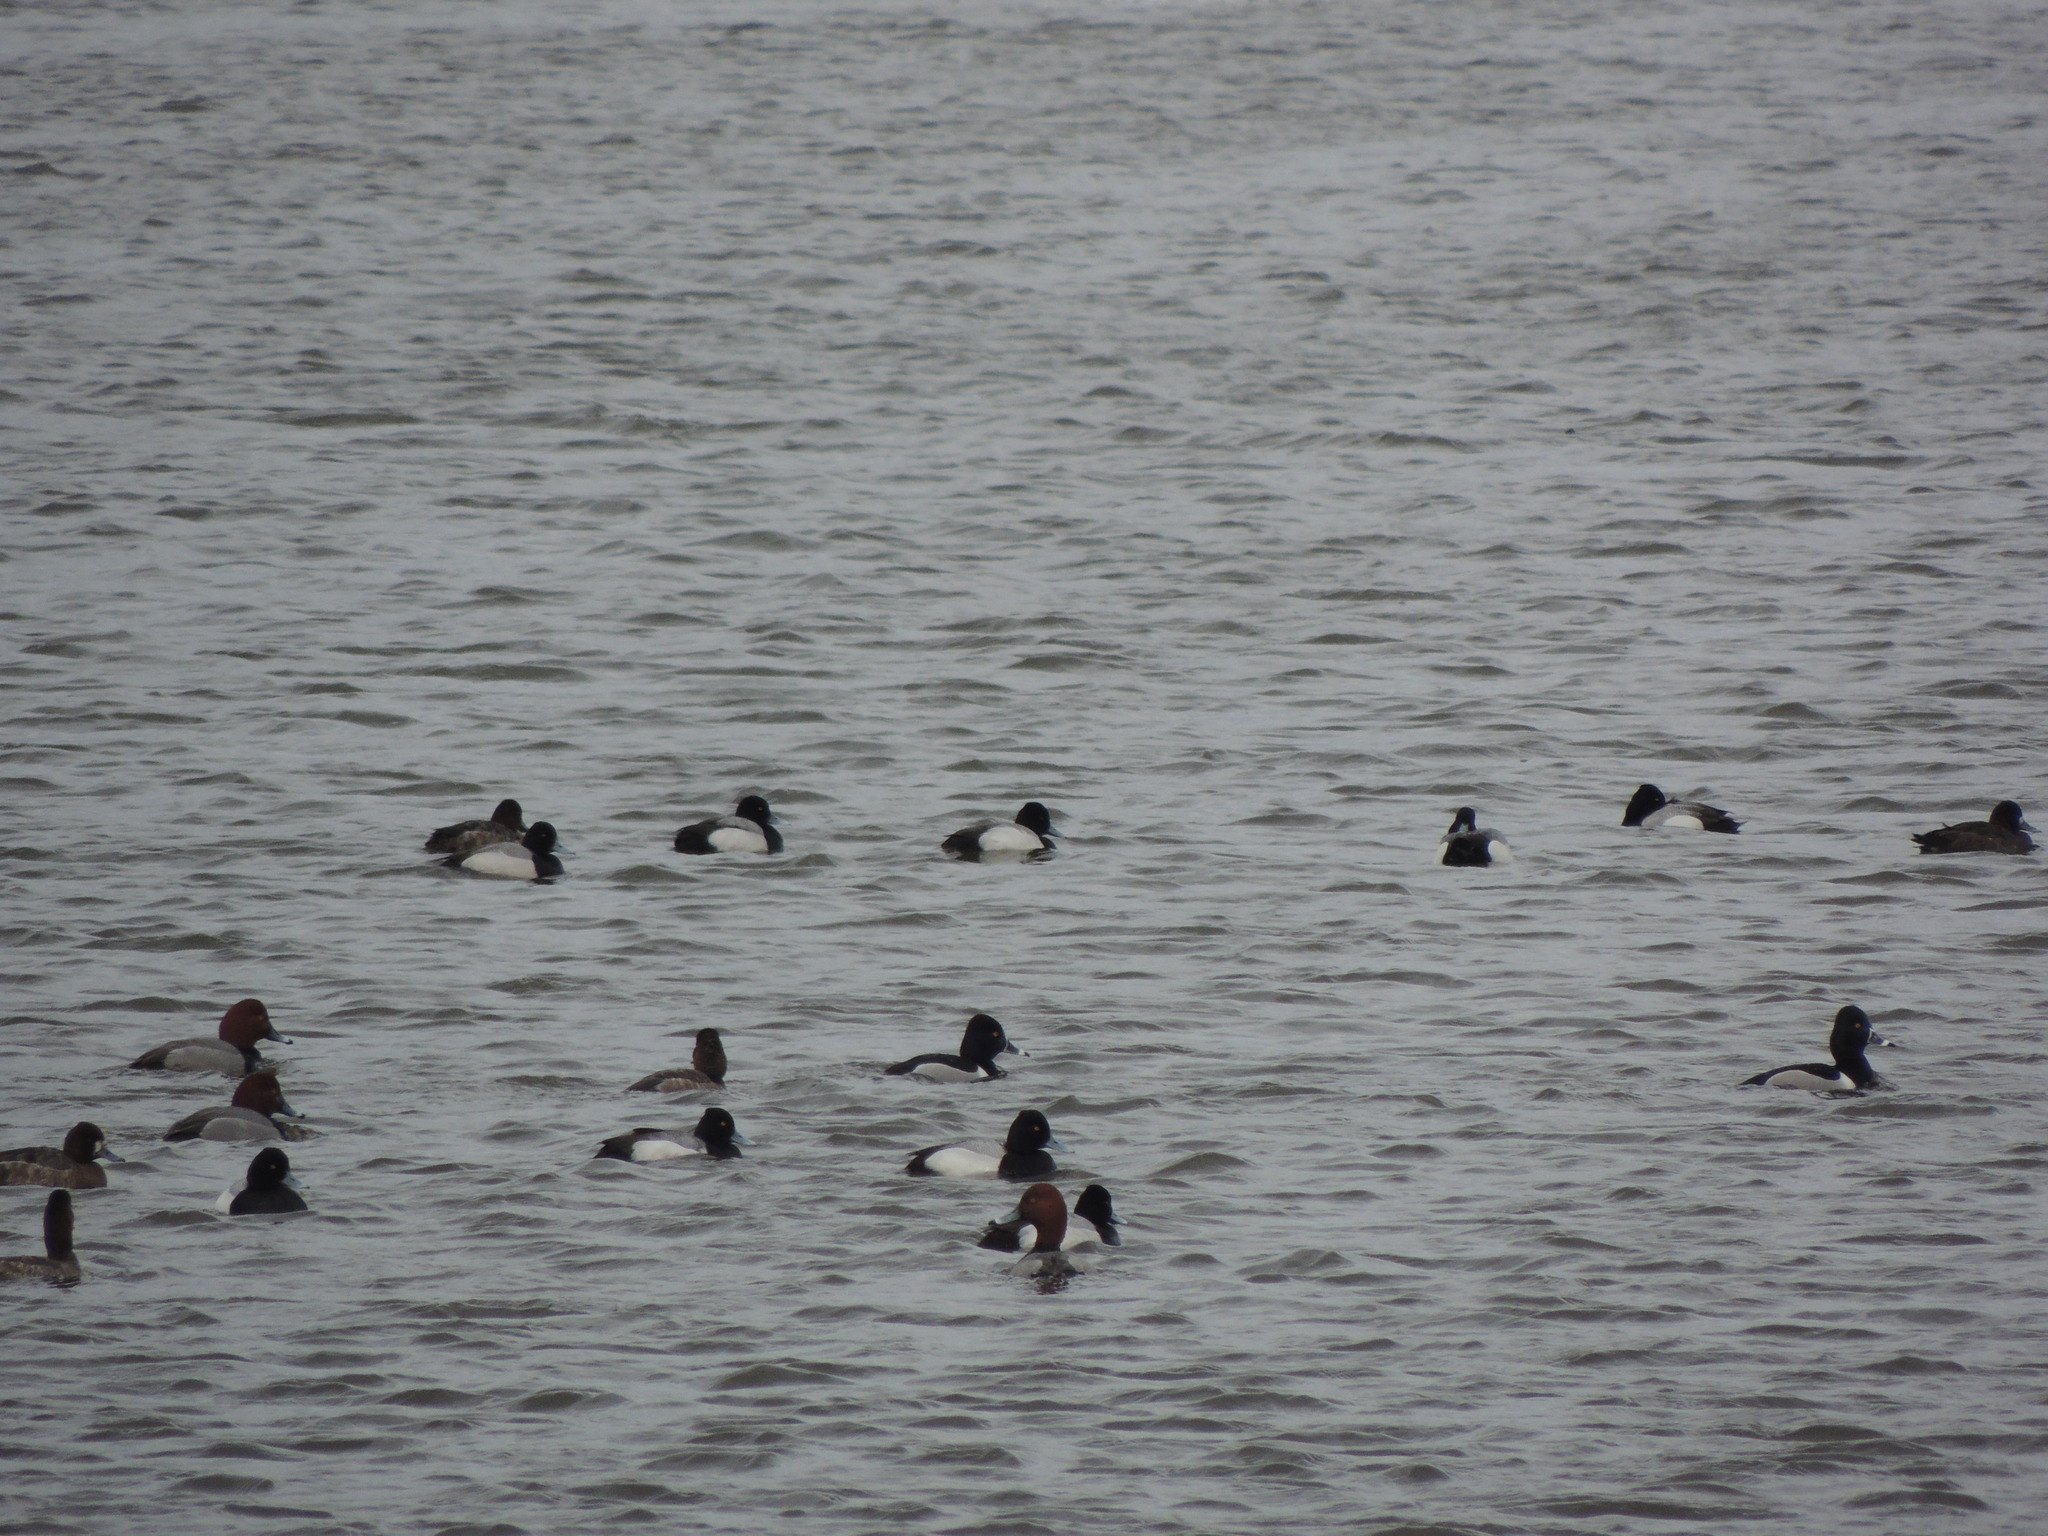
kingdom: Animalia
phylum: Chordata
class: Aves
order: Anseriformes
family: Anatidae
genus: Aythya
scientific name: Aythya affinis
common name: Lesser scaup
